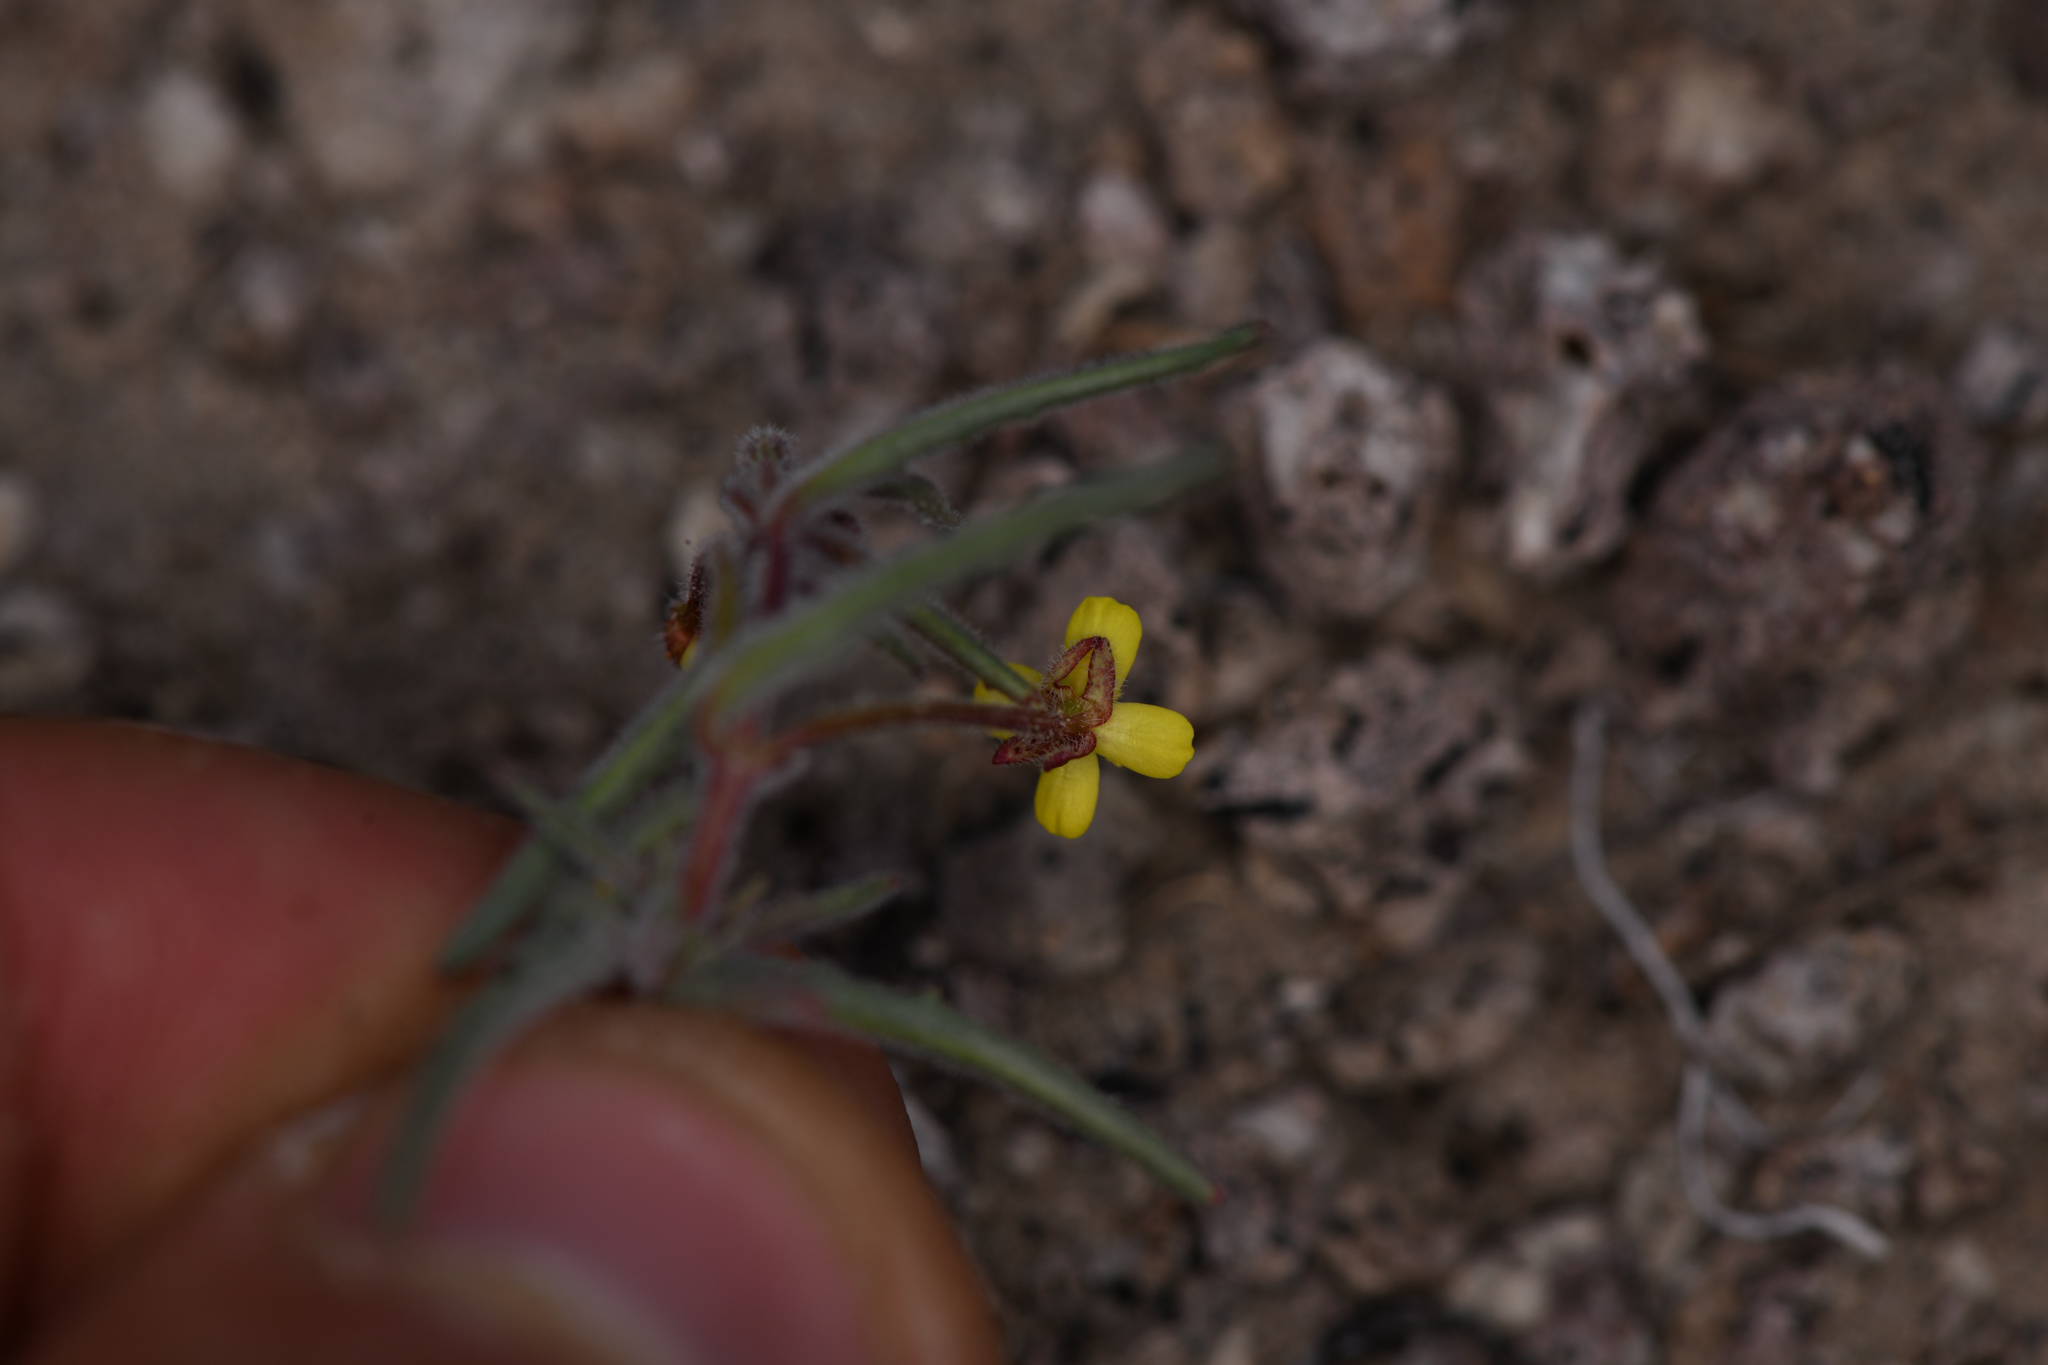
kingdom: Plantae
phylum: Tracheophyta
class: Magnoliopsida
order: Myrtales
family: Onagraceae
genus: Camissonia
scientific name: Camissonia pusilla
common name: Obscure camissonia
